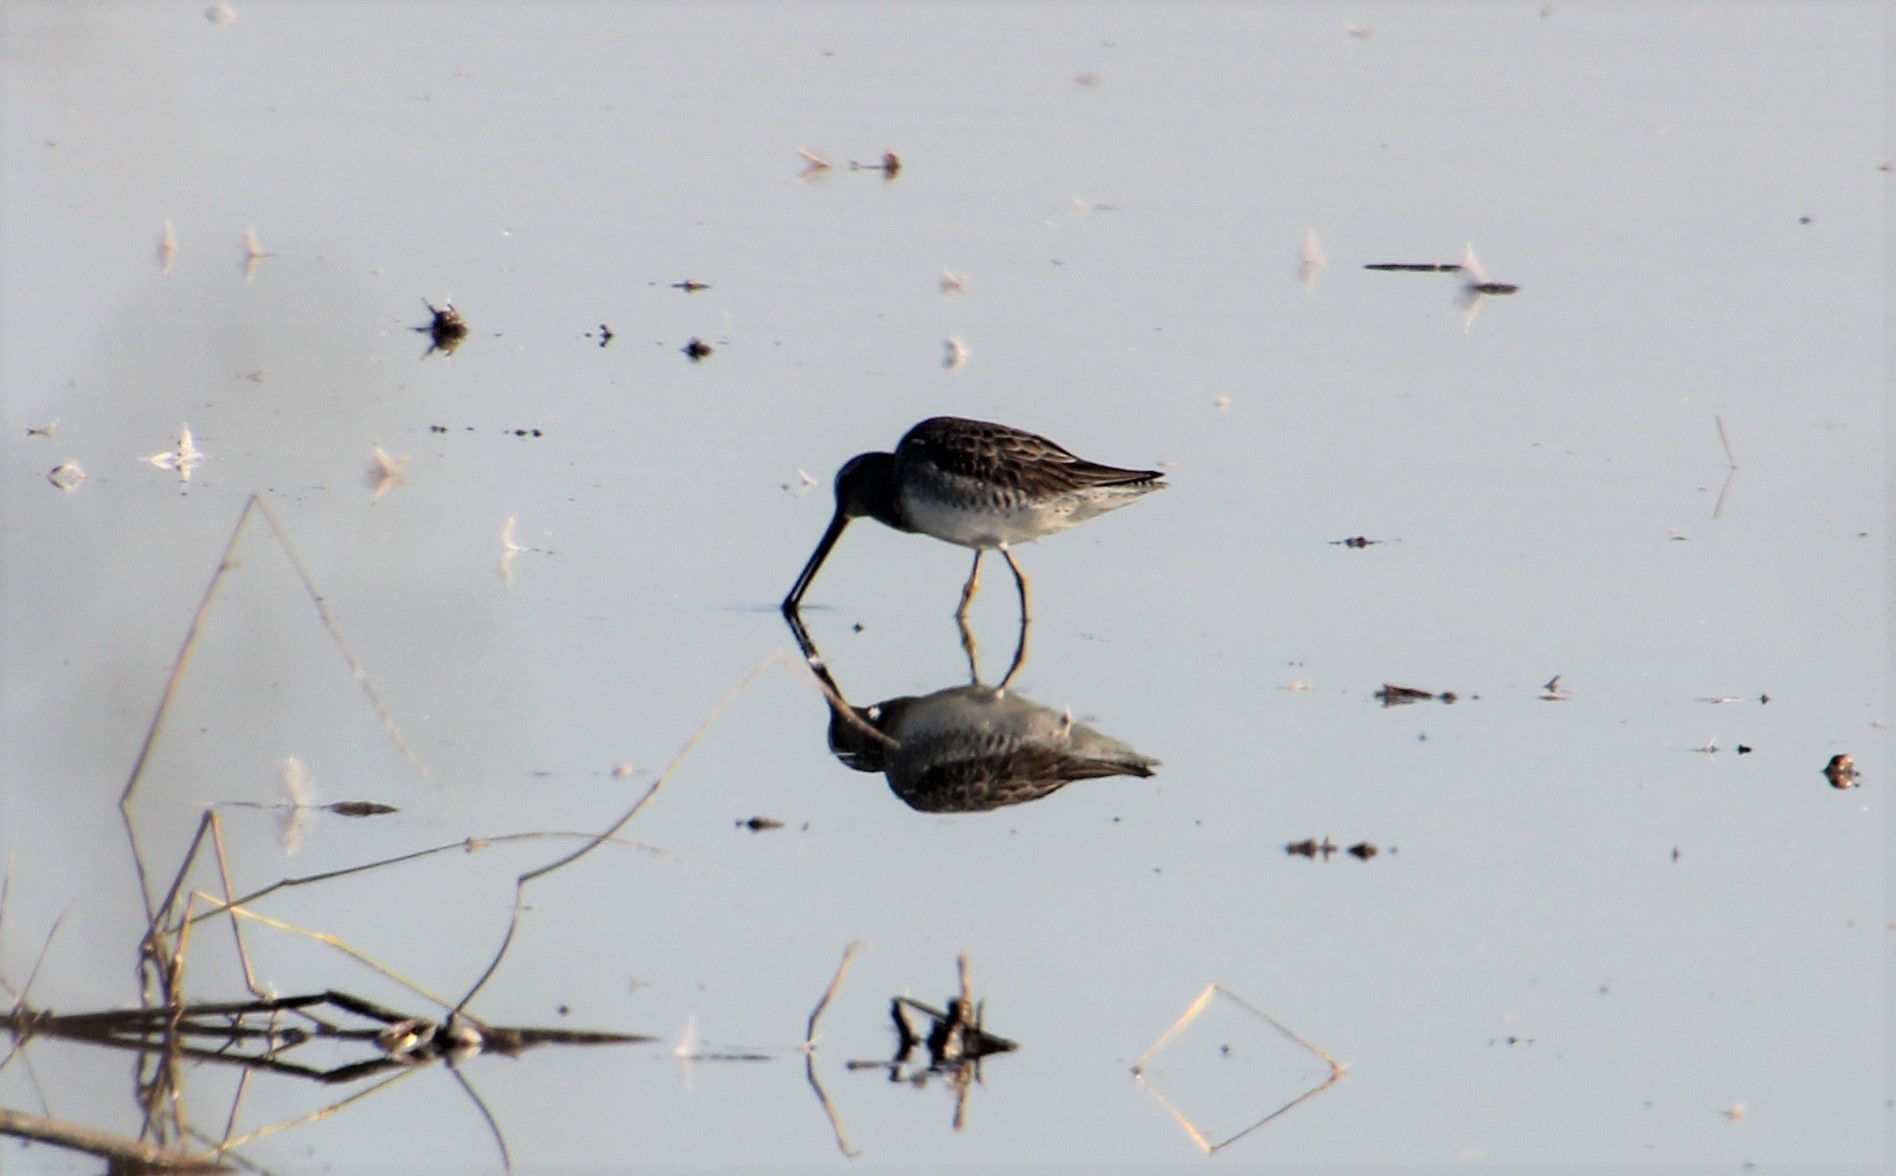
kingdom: Animalia
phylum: Chordata
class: Aves
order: Charadriiformes
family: Scolopacidae
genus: Limnodromus
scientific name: Limnodromus scolopaceus
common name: Long-billed dowitcher
